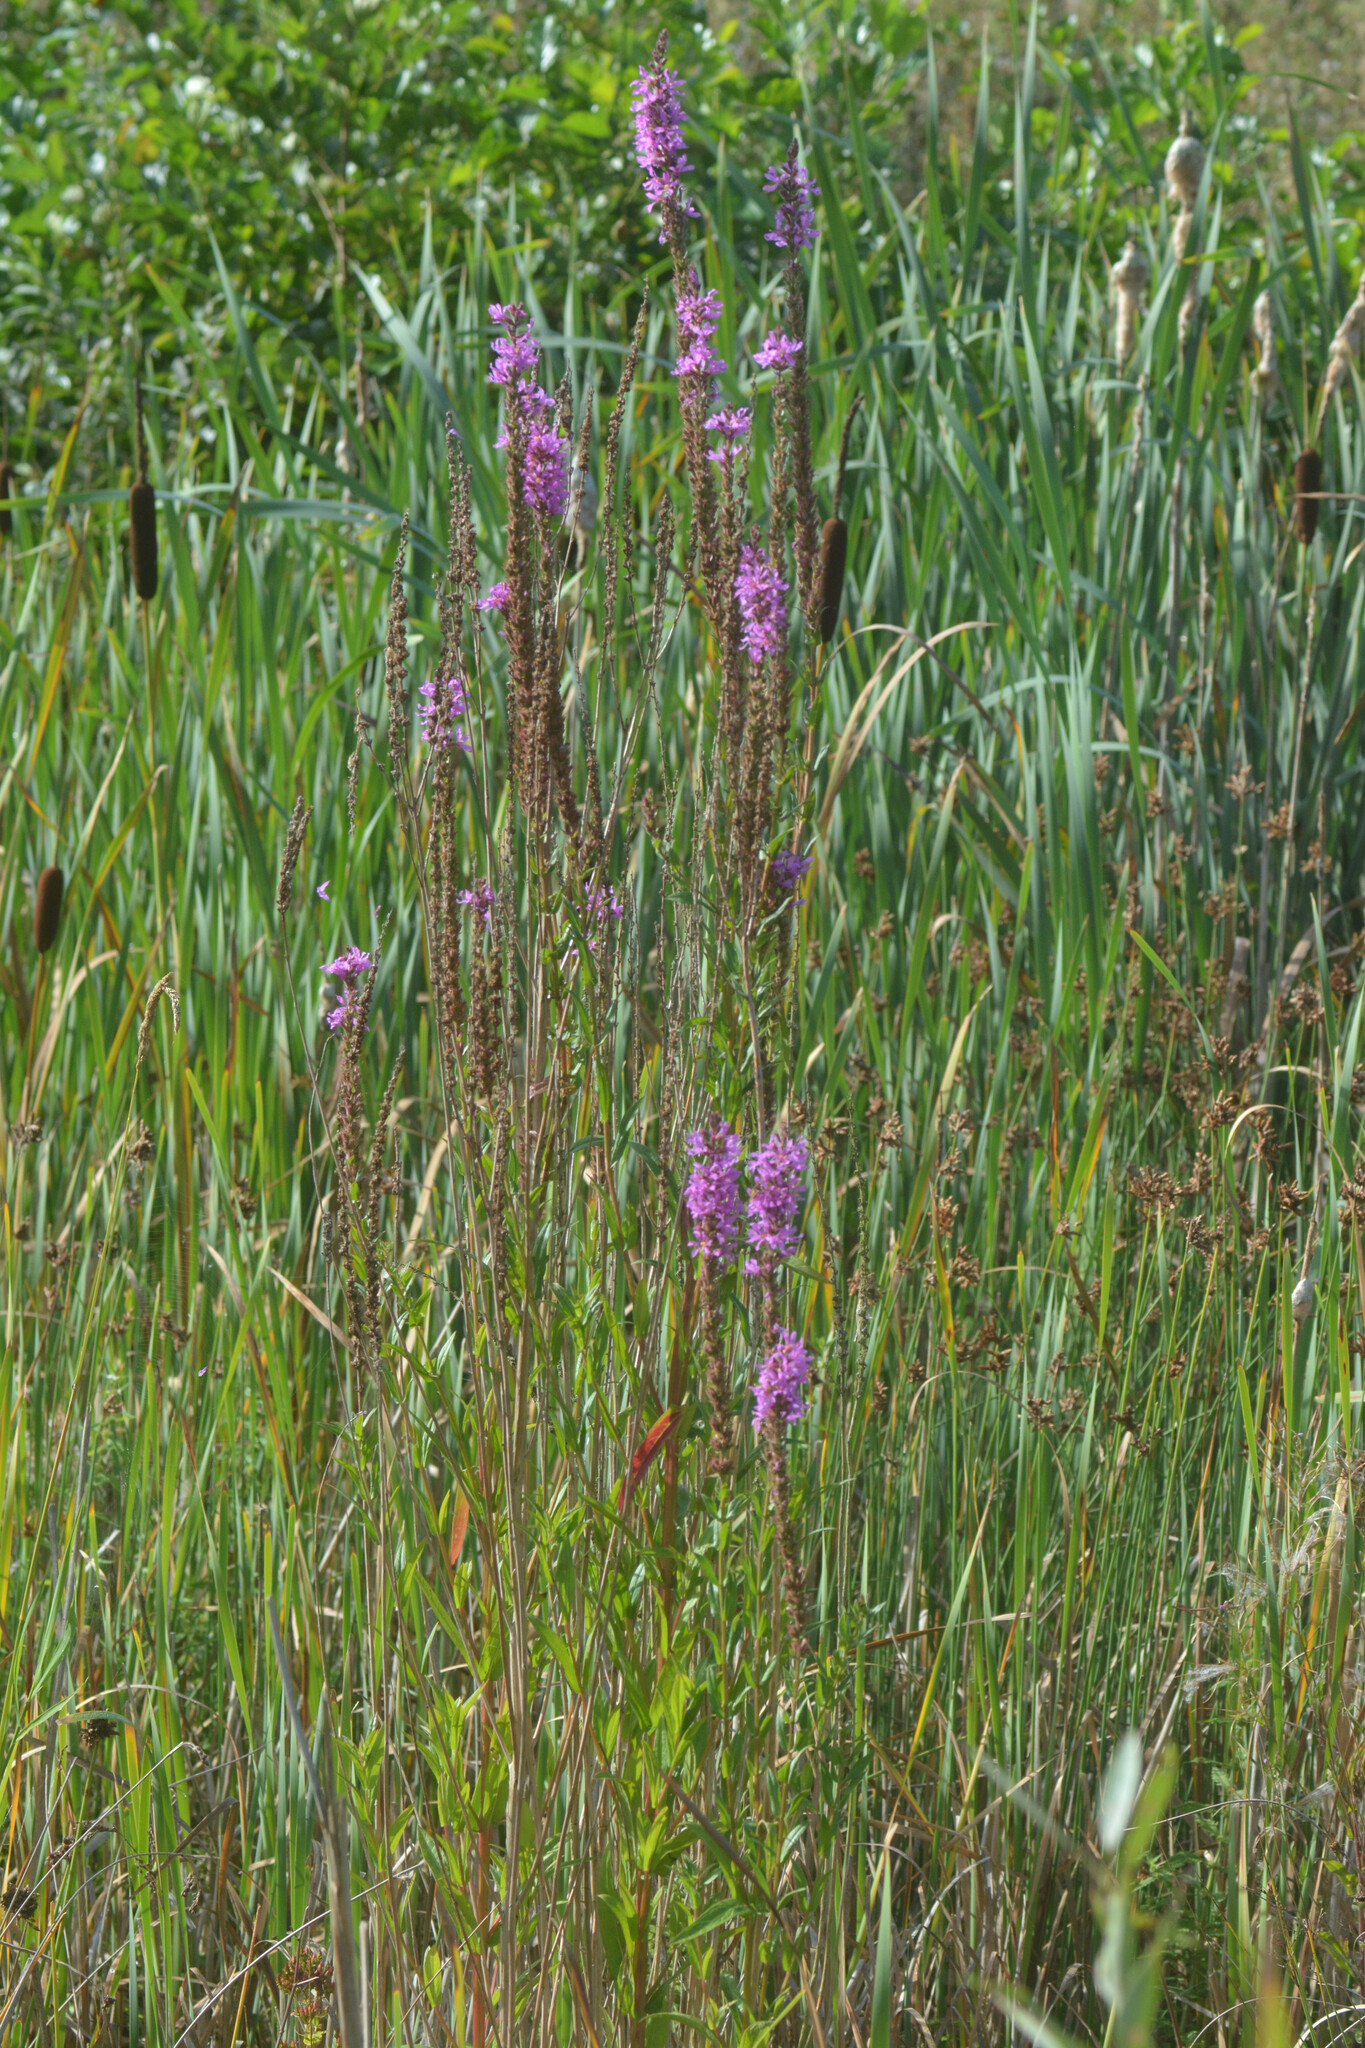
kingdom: Plantae
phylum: Tracheophyta
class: Magnoliopsida
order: Myrtales
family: Lythraceae
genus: Lythrum
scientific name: Lythrum salicaria
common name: Purple loosestrife
